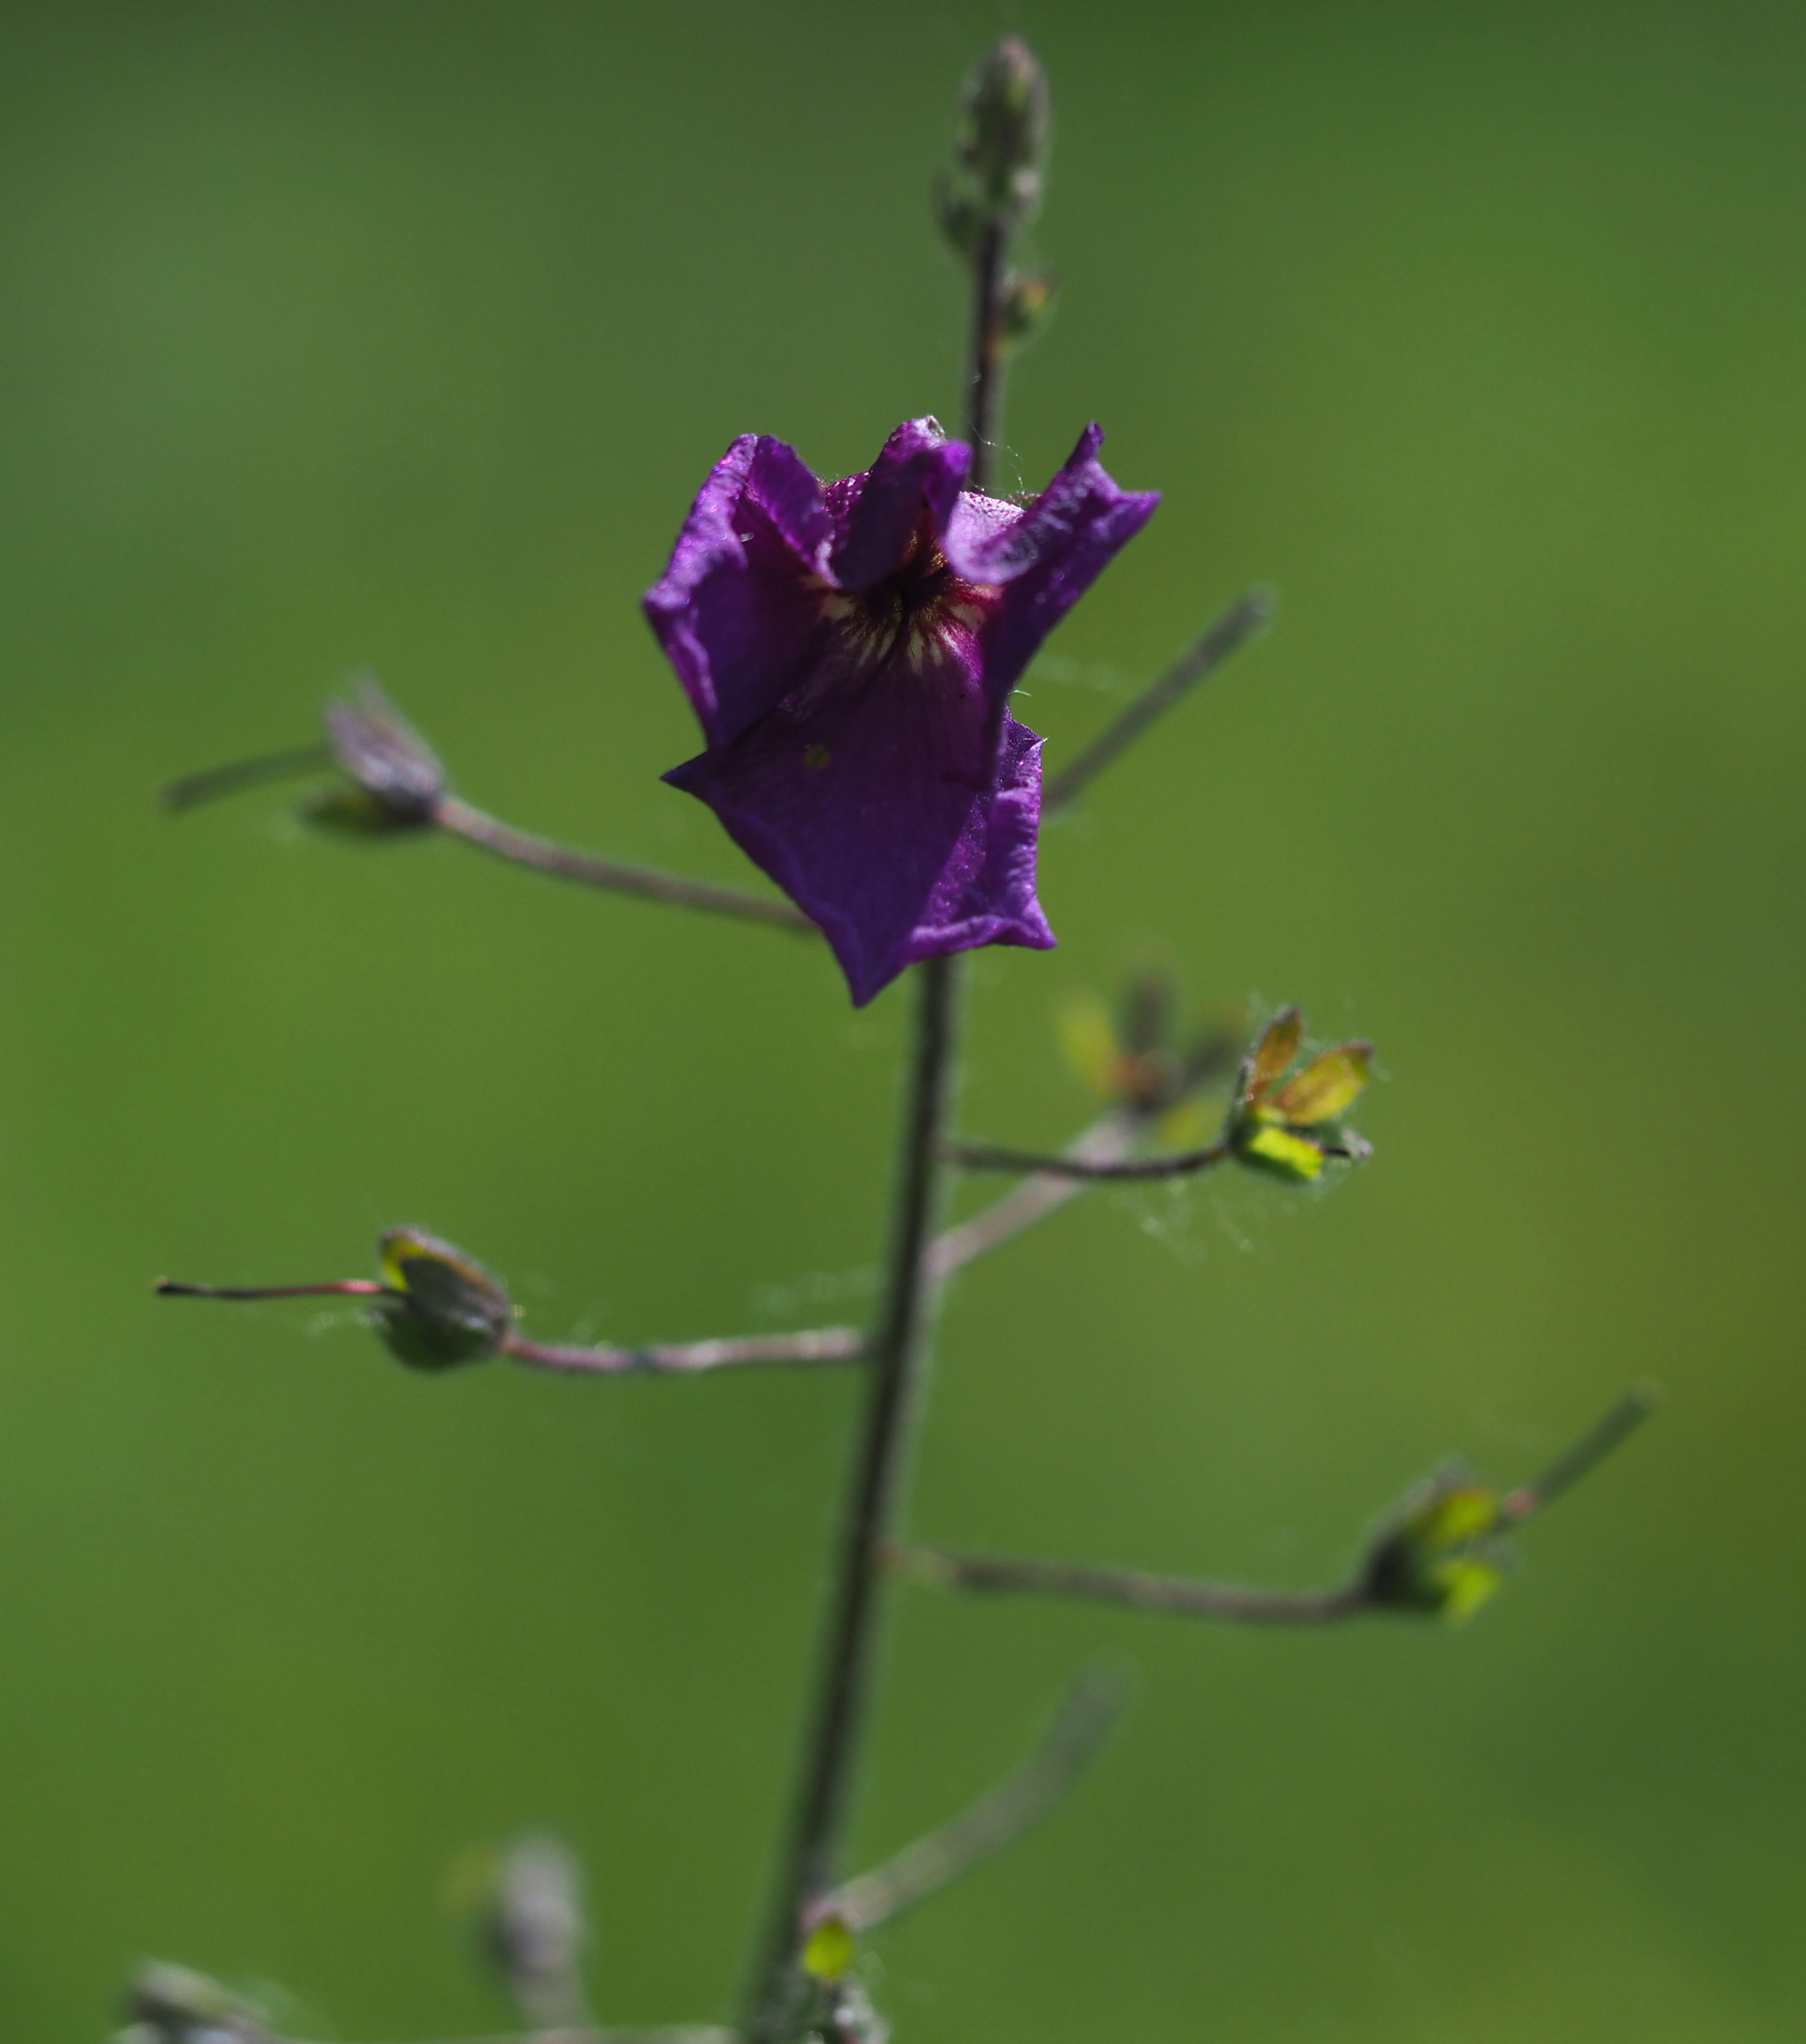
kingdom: Plantae
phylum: Tracheophyta
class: Magnoliopsida
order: Lamiales
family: Scrophulariaceae
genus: Verbascum
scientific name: Verbascum phoeniceum
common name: Purple mullein
